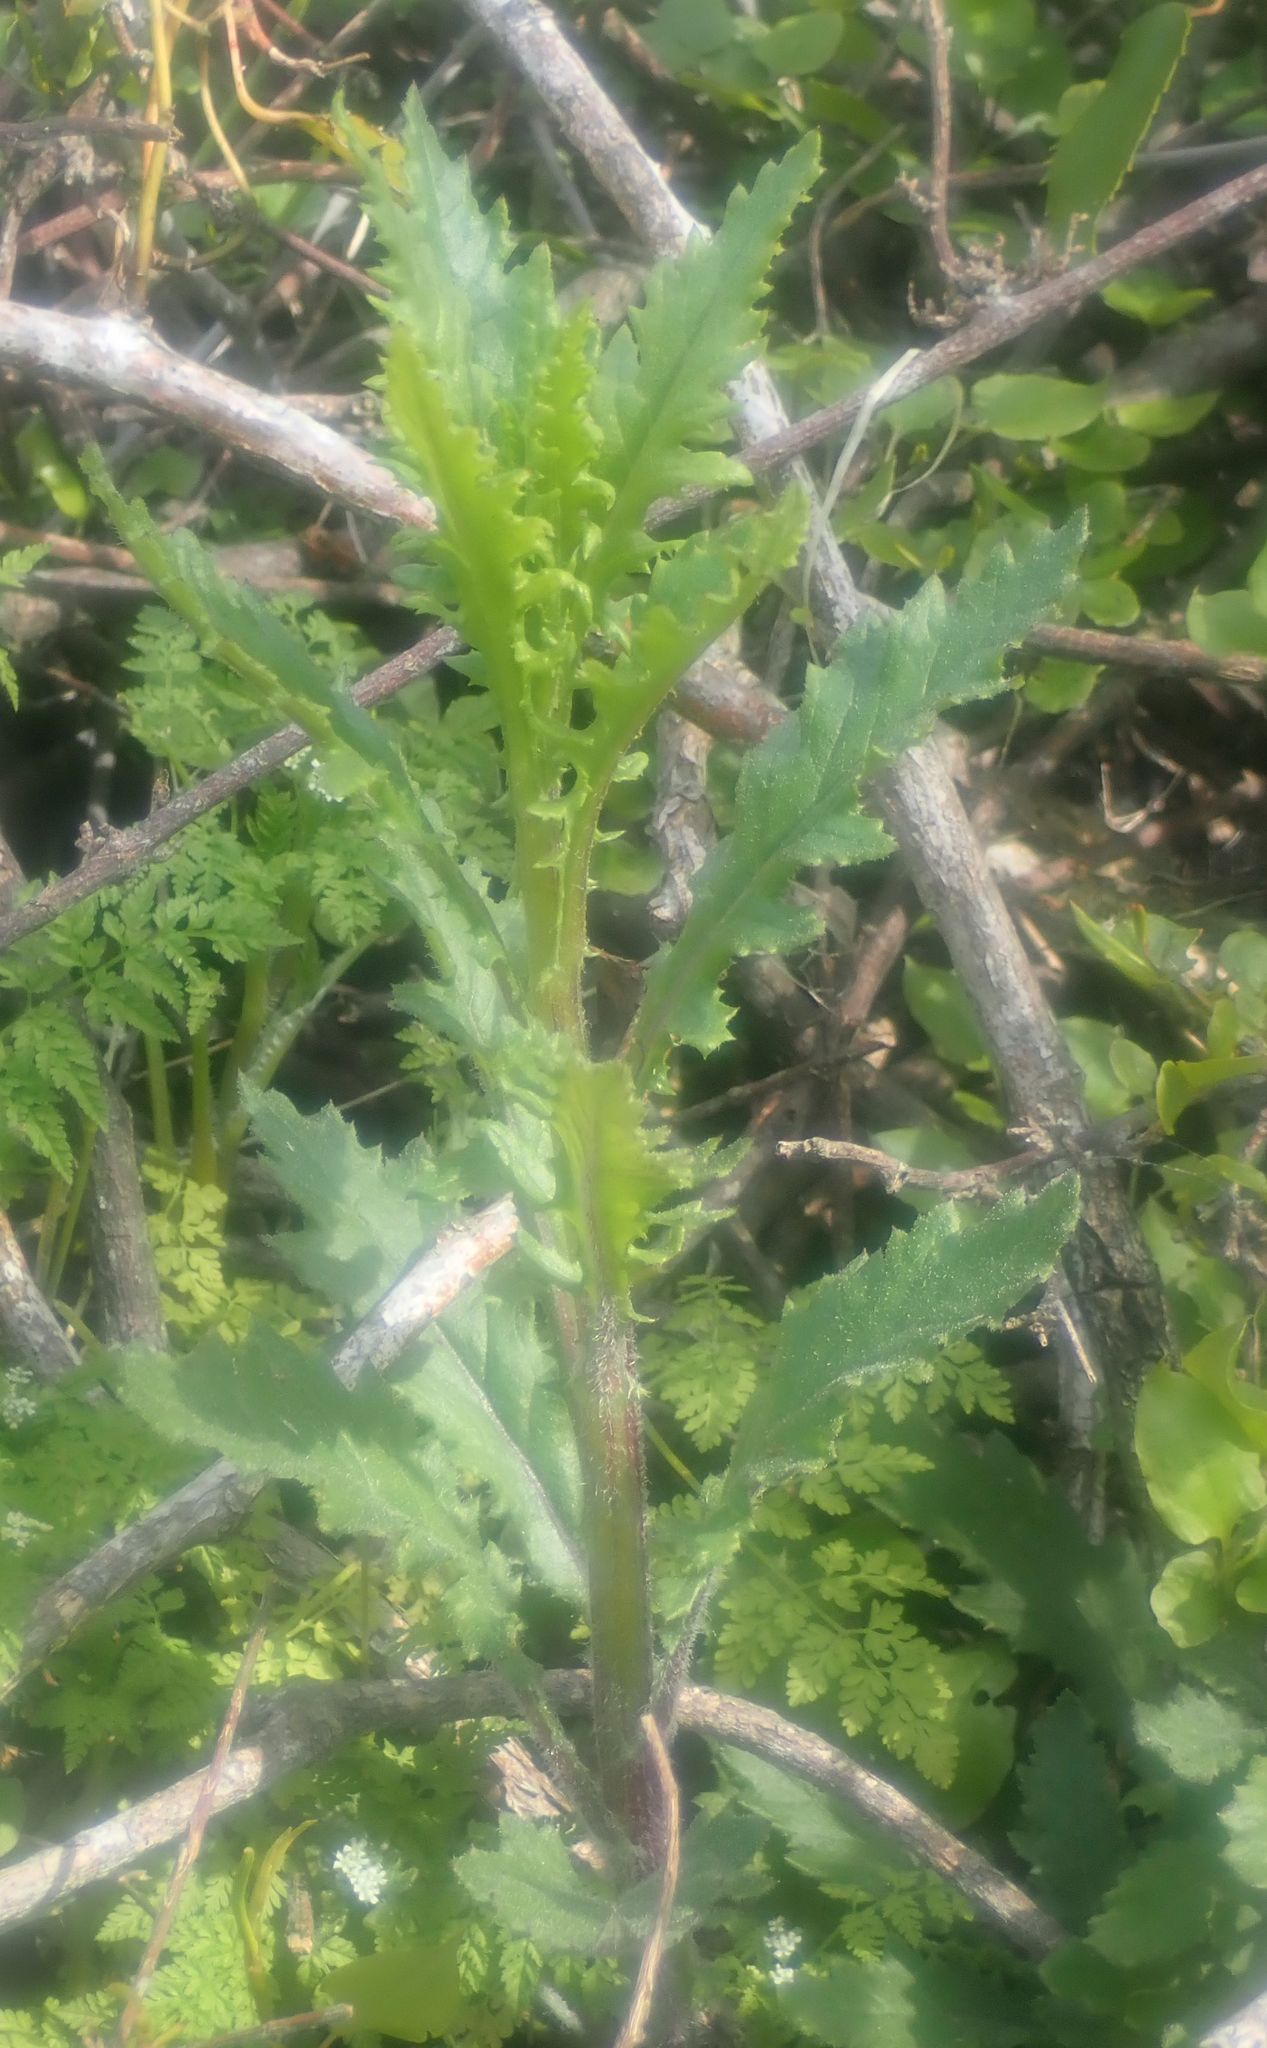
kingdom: Plantae
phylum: Tracheophyta
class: Magnoliopsida
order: Asterales
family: Asteraceae
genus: Senecio
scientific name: Senecio biserratus
